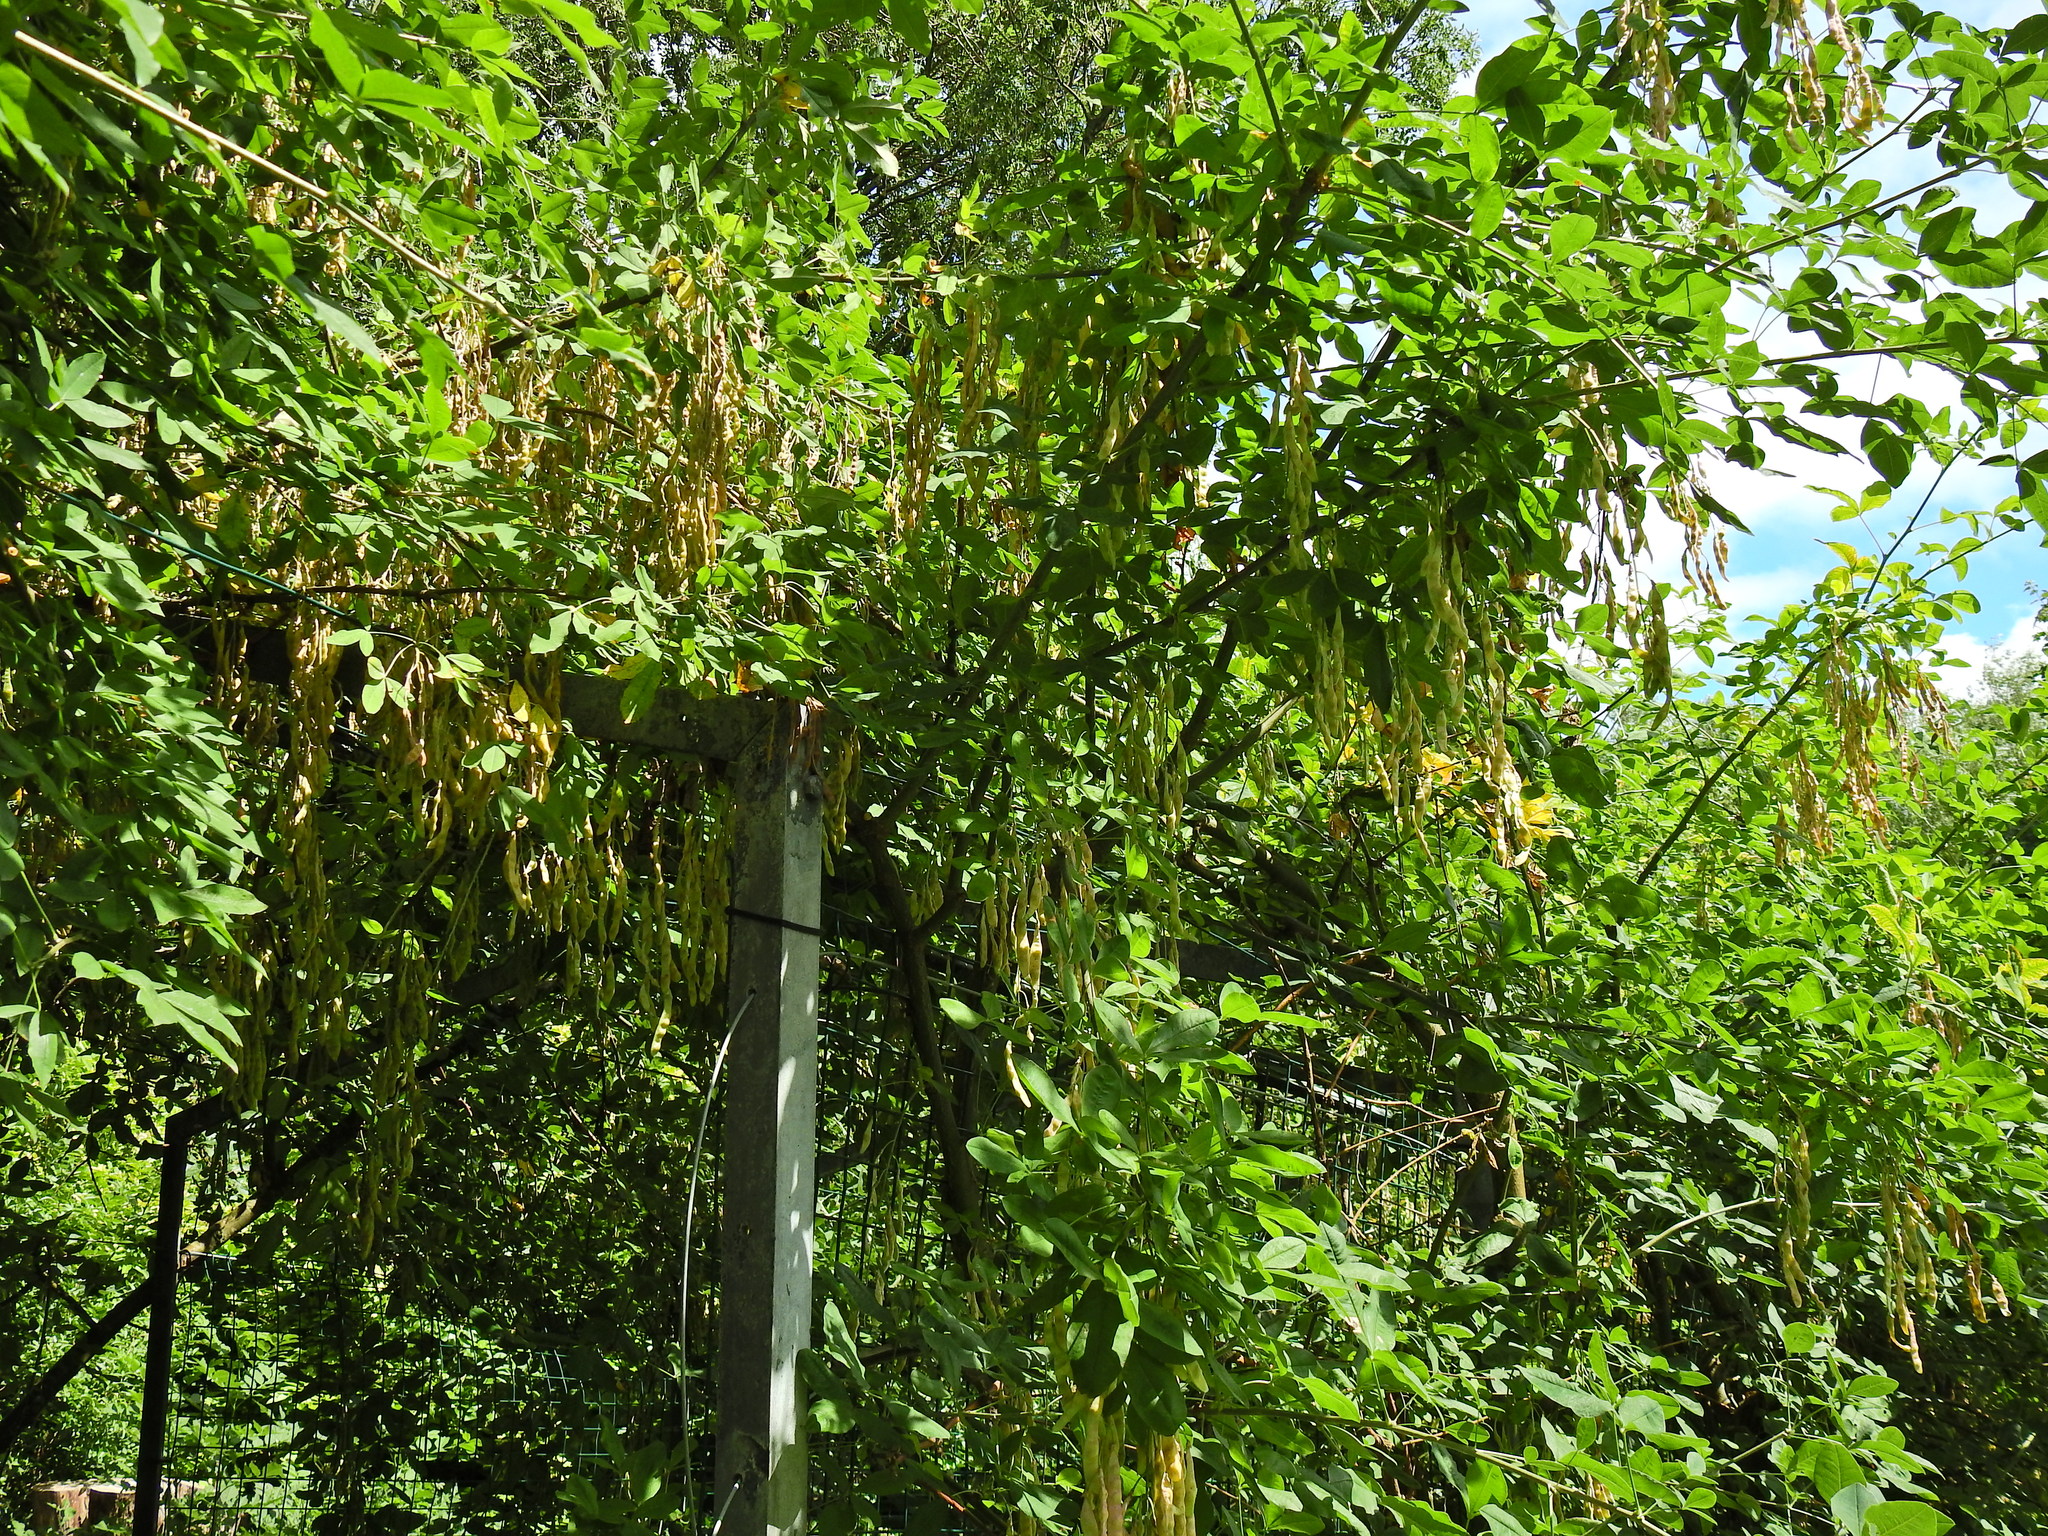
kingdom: Plantae
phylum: Tracheophyta
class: Magnoliopsida
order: Fabales
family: Fabaceae
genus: Laburnum
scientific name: Laburnum anagyroides
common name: Laburnum
